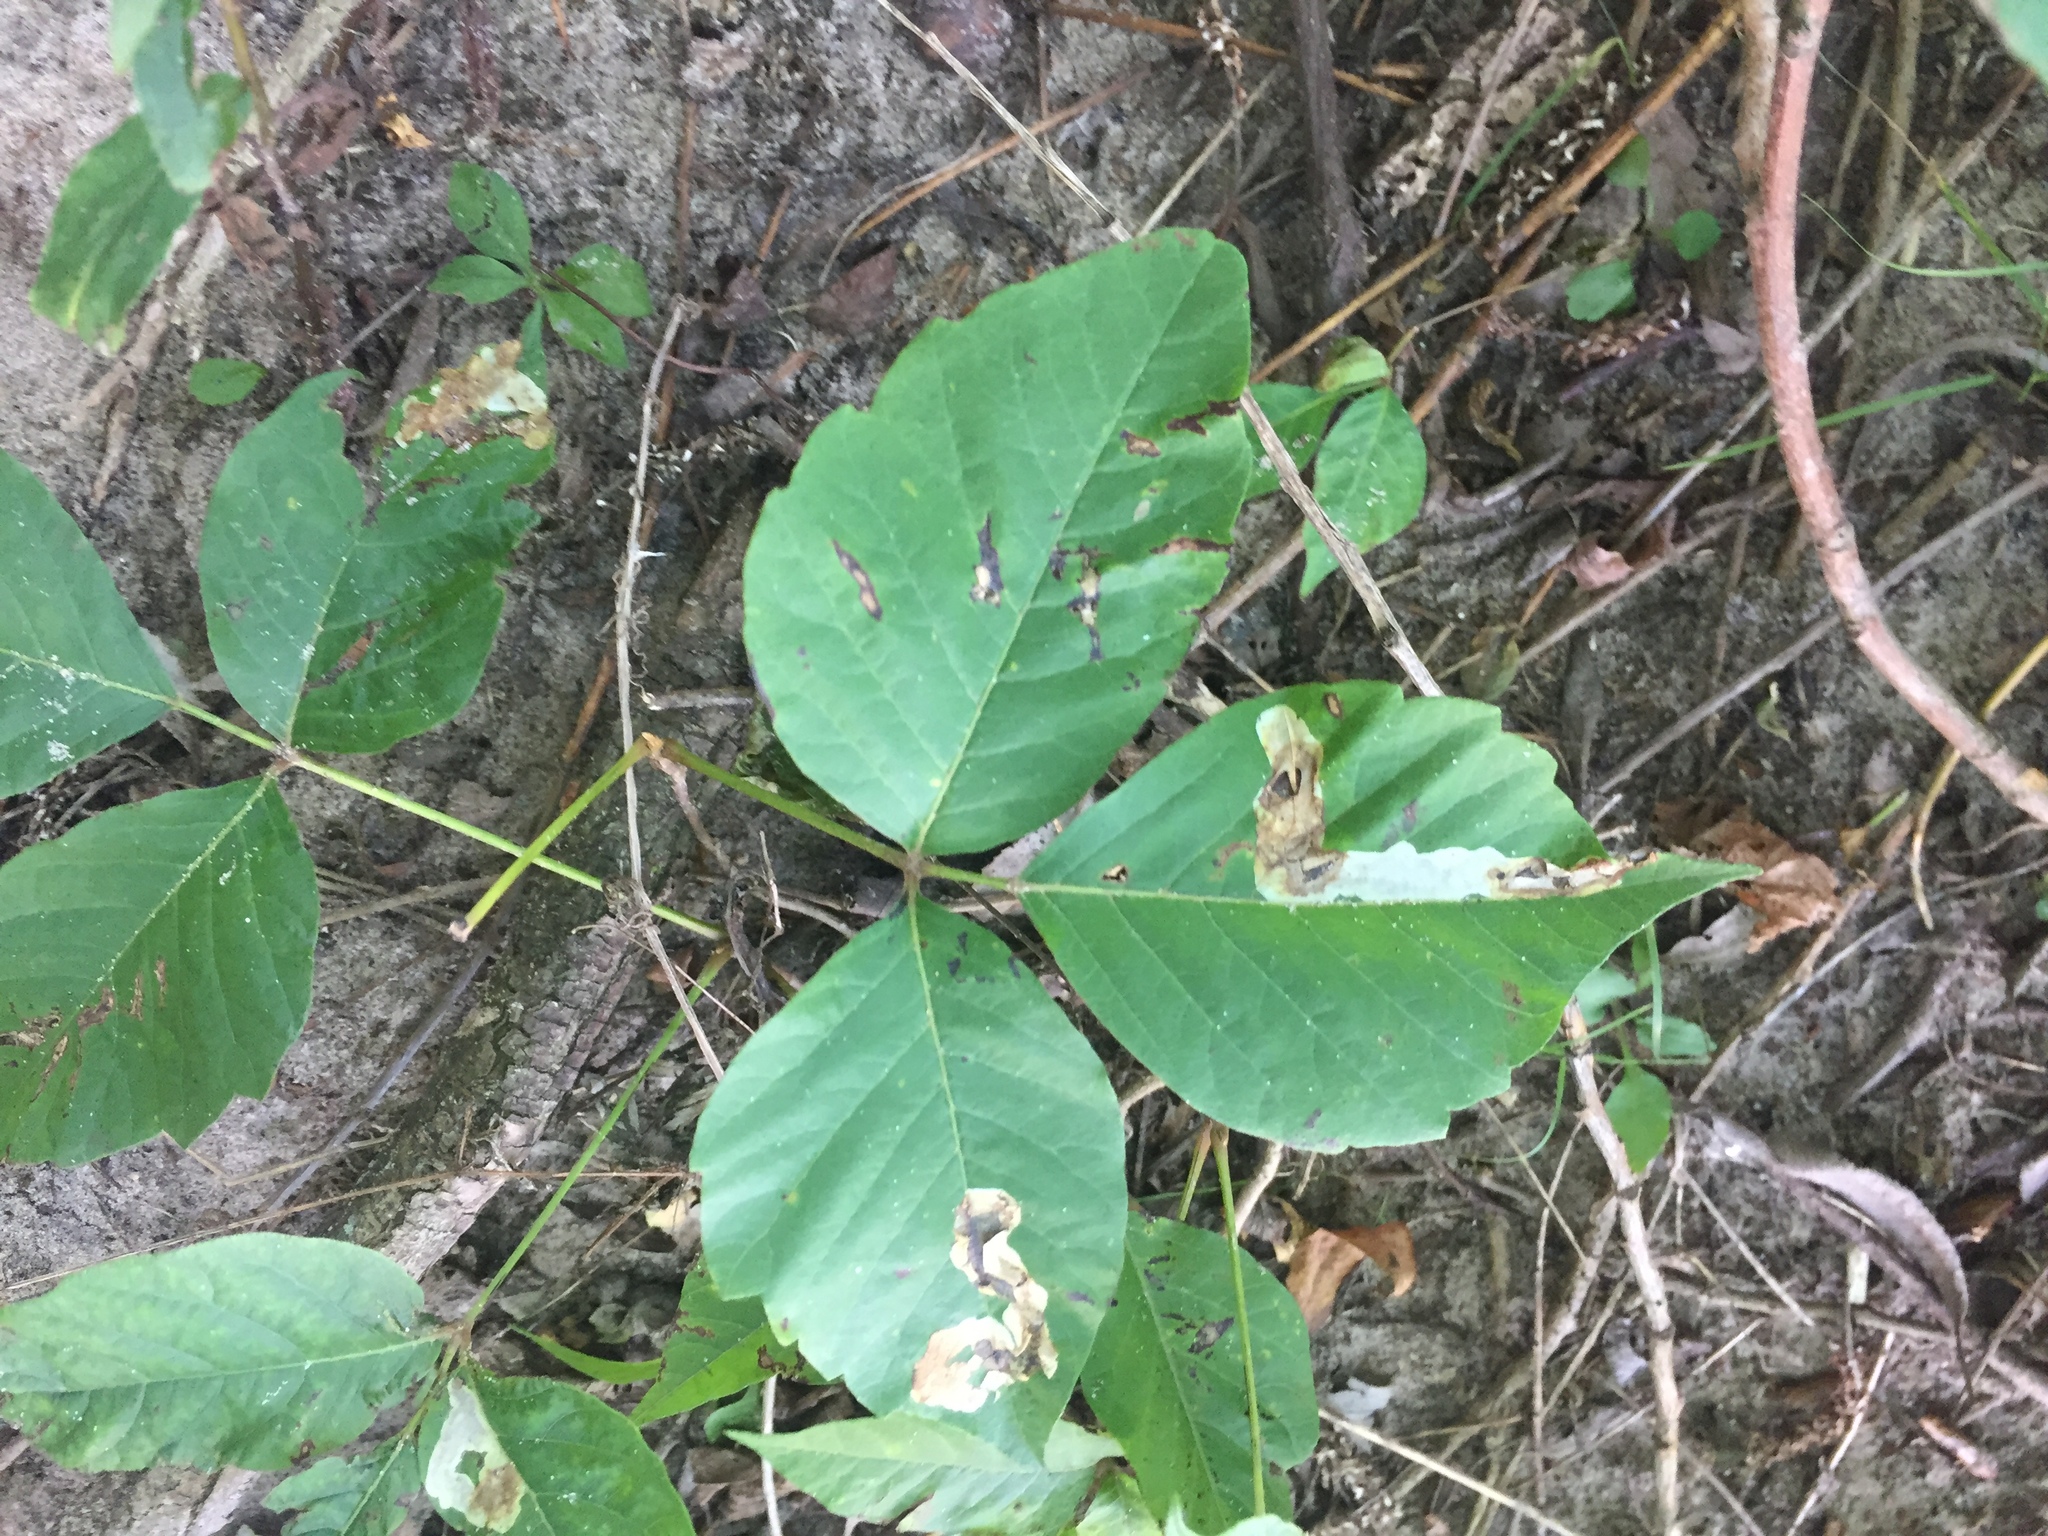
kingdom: Plantae
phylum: Tracheophyta
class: Magnoliopsida
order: Sapindales
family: Anacardiaceae
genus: Toxicodendron
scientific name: Toxicodendron radicans
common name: Poison ivy
